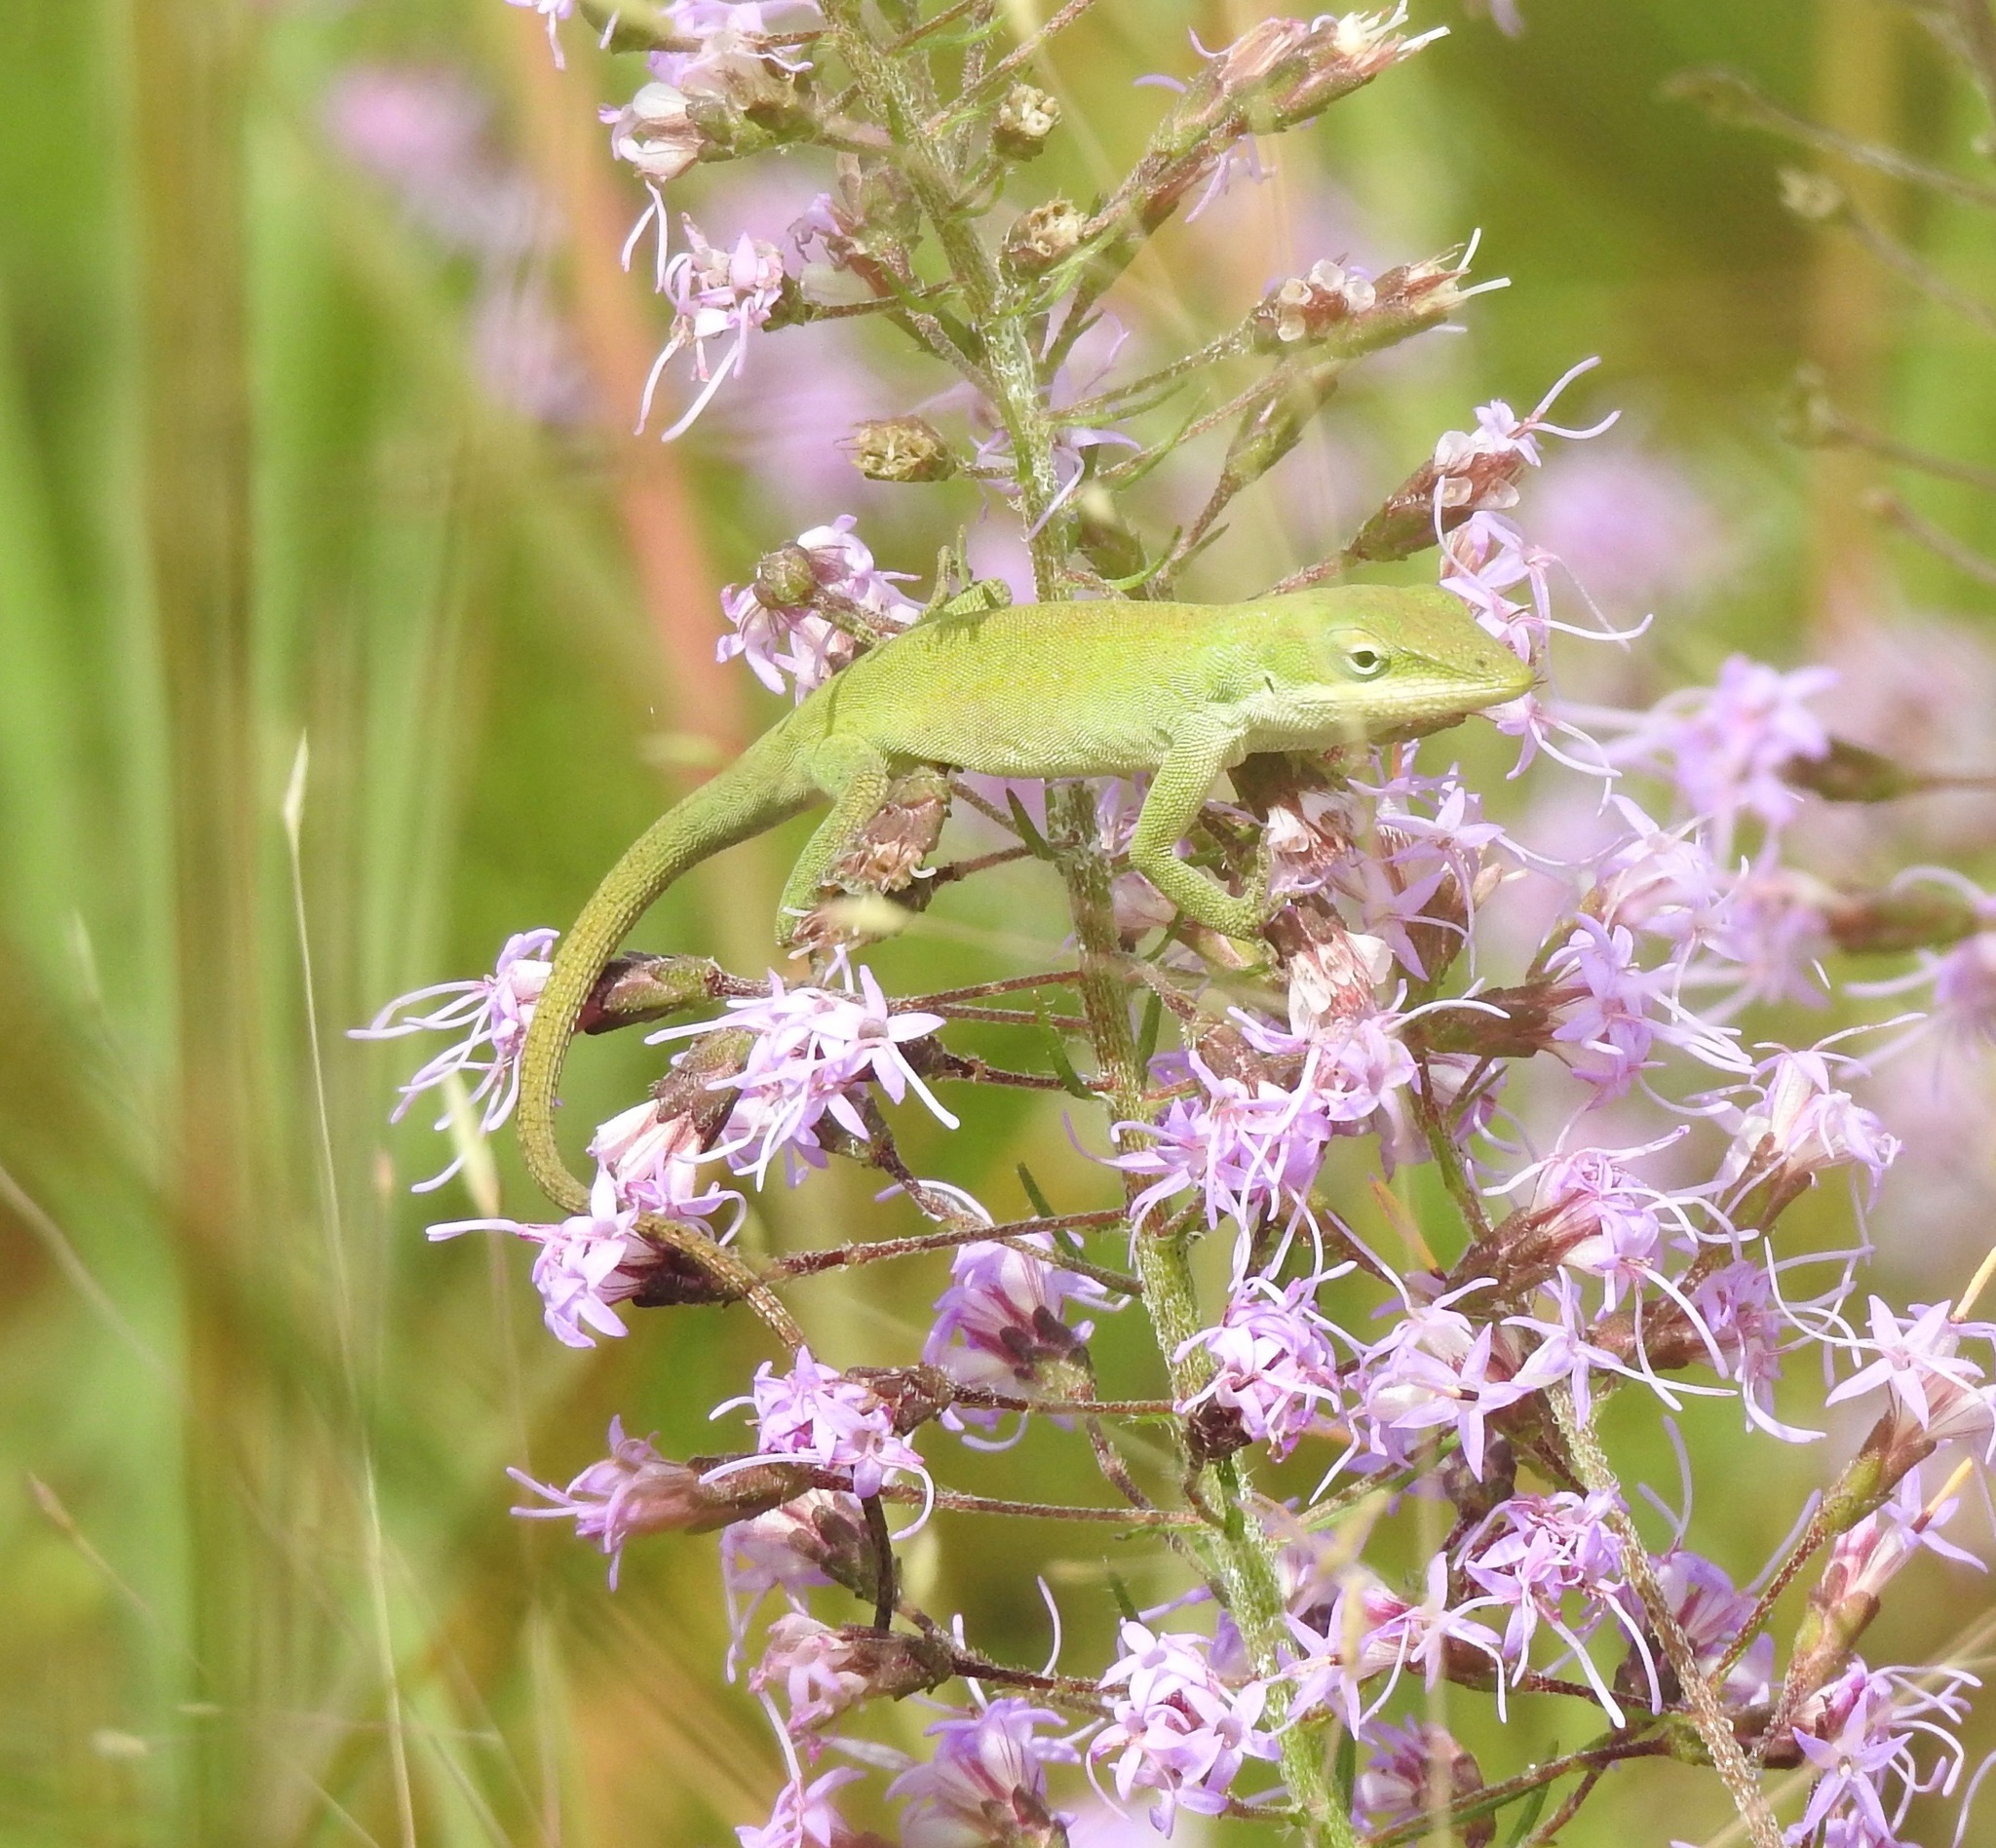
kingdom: Animalia
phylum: Chordata
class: Squamata
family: Dactyloidae
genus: Anolis
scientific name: Anolis carolinensis
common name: Green anole
